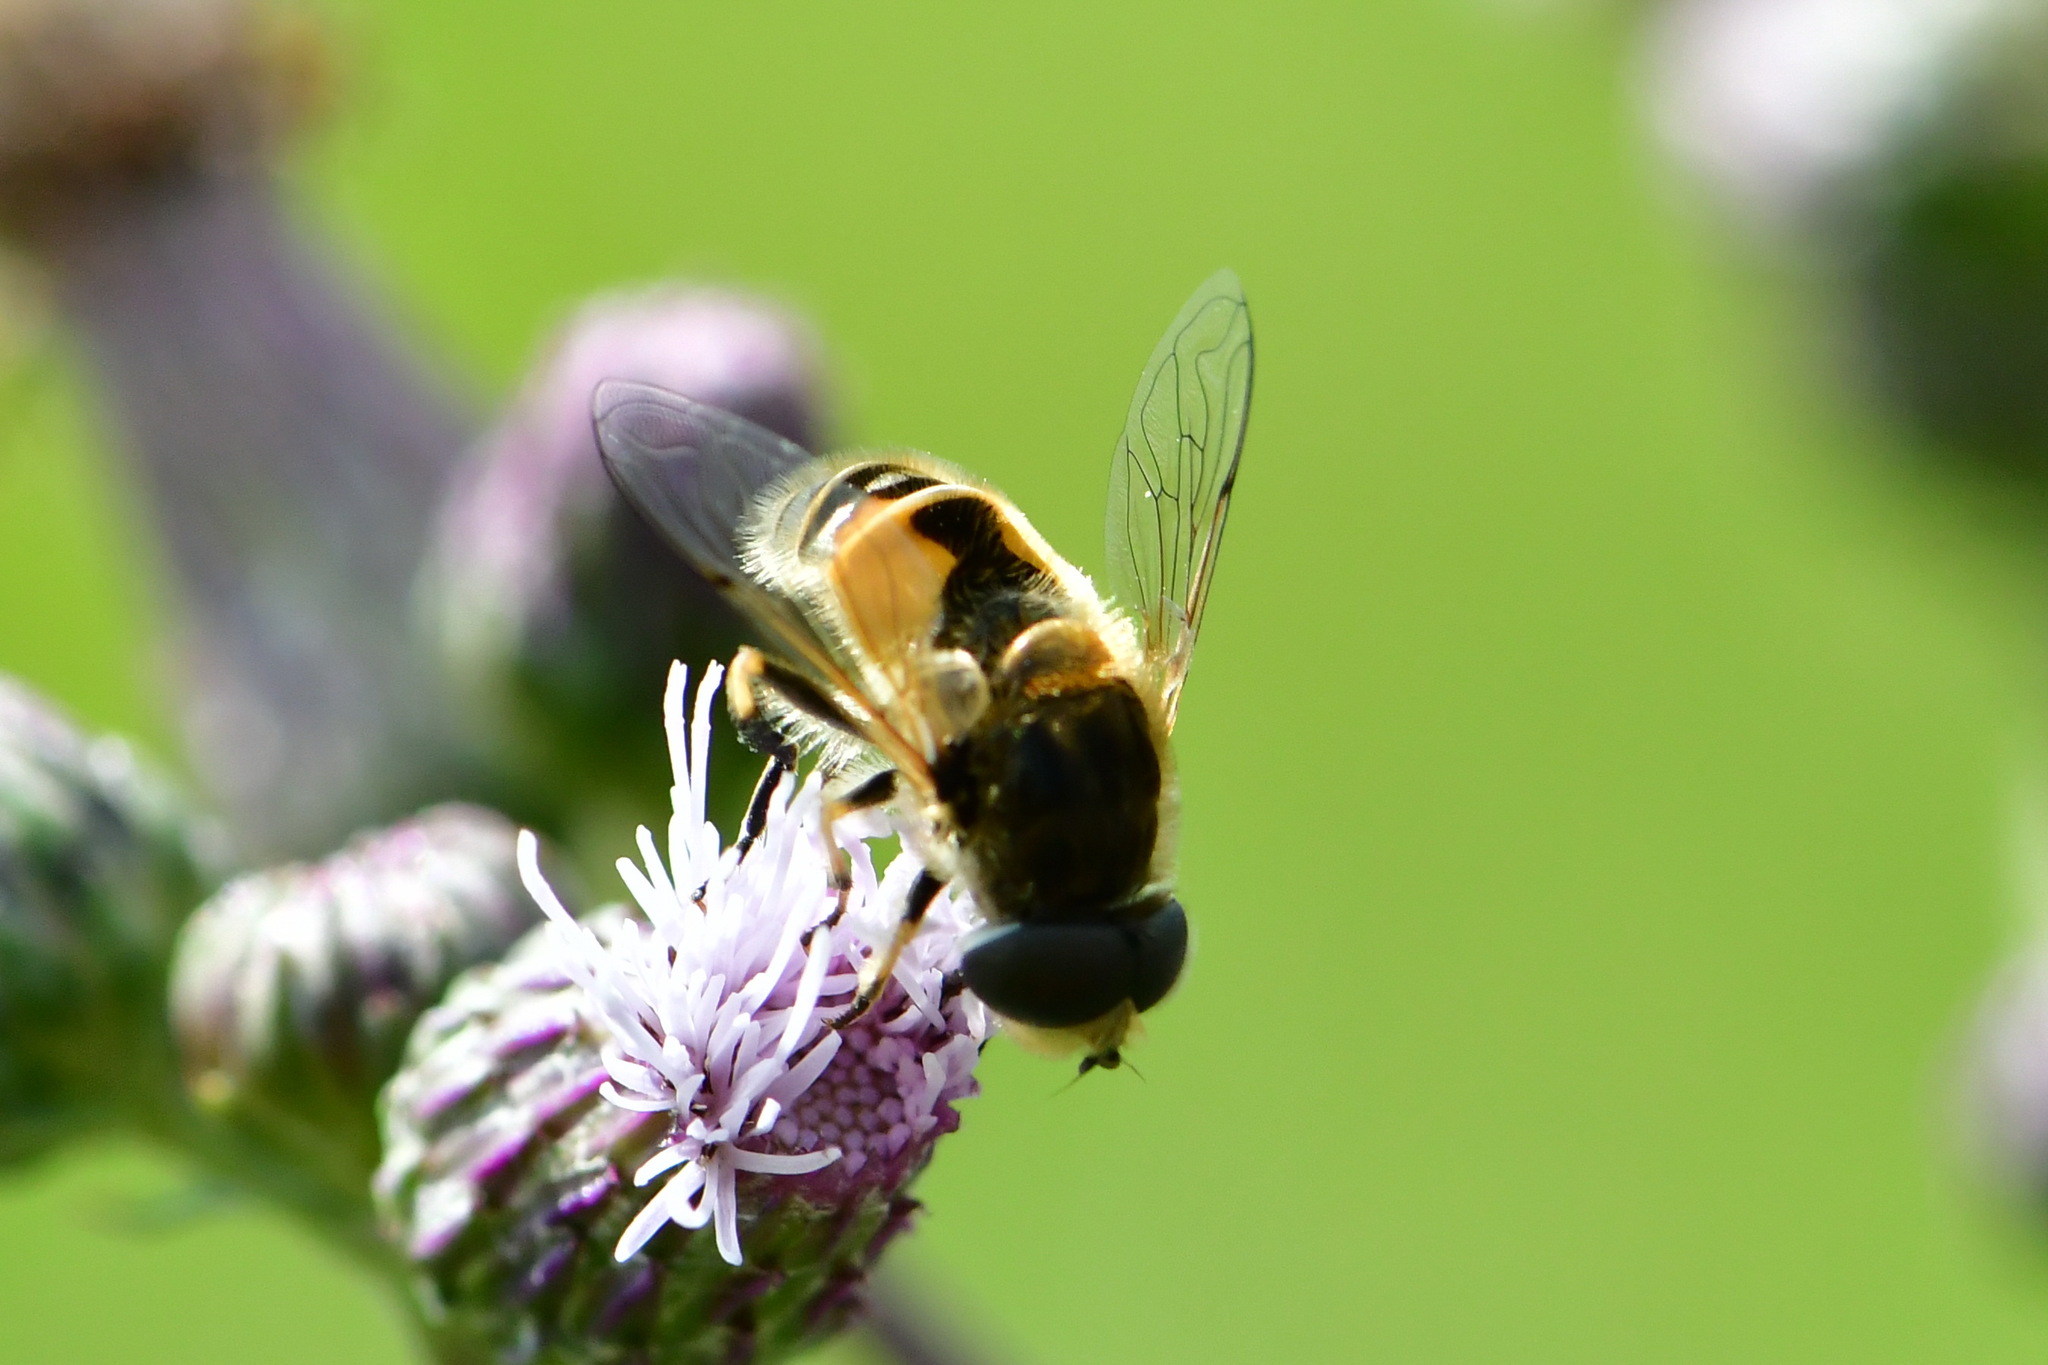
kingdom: Animalia
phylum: Arthropoda
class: Insecta
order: Diptera
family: Syrphidae
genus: Eristalis
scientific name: Eristalis arbustorum
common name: Hover fly
